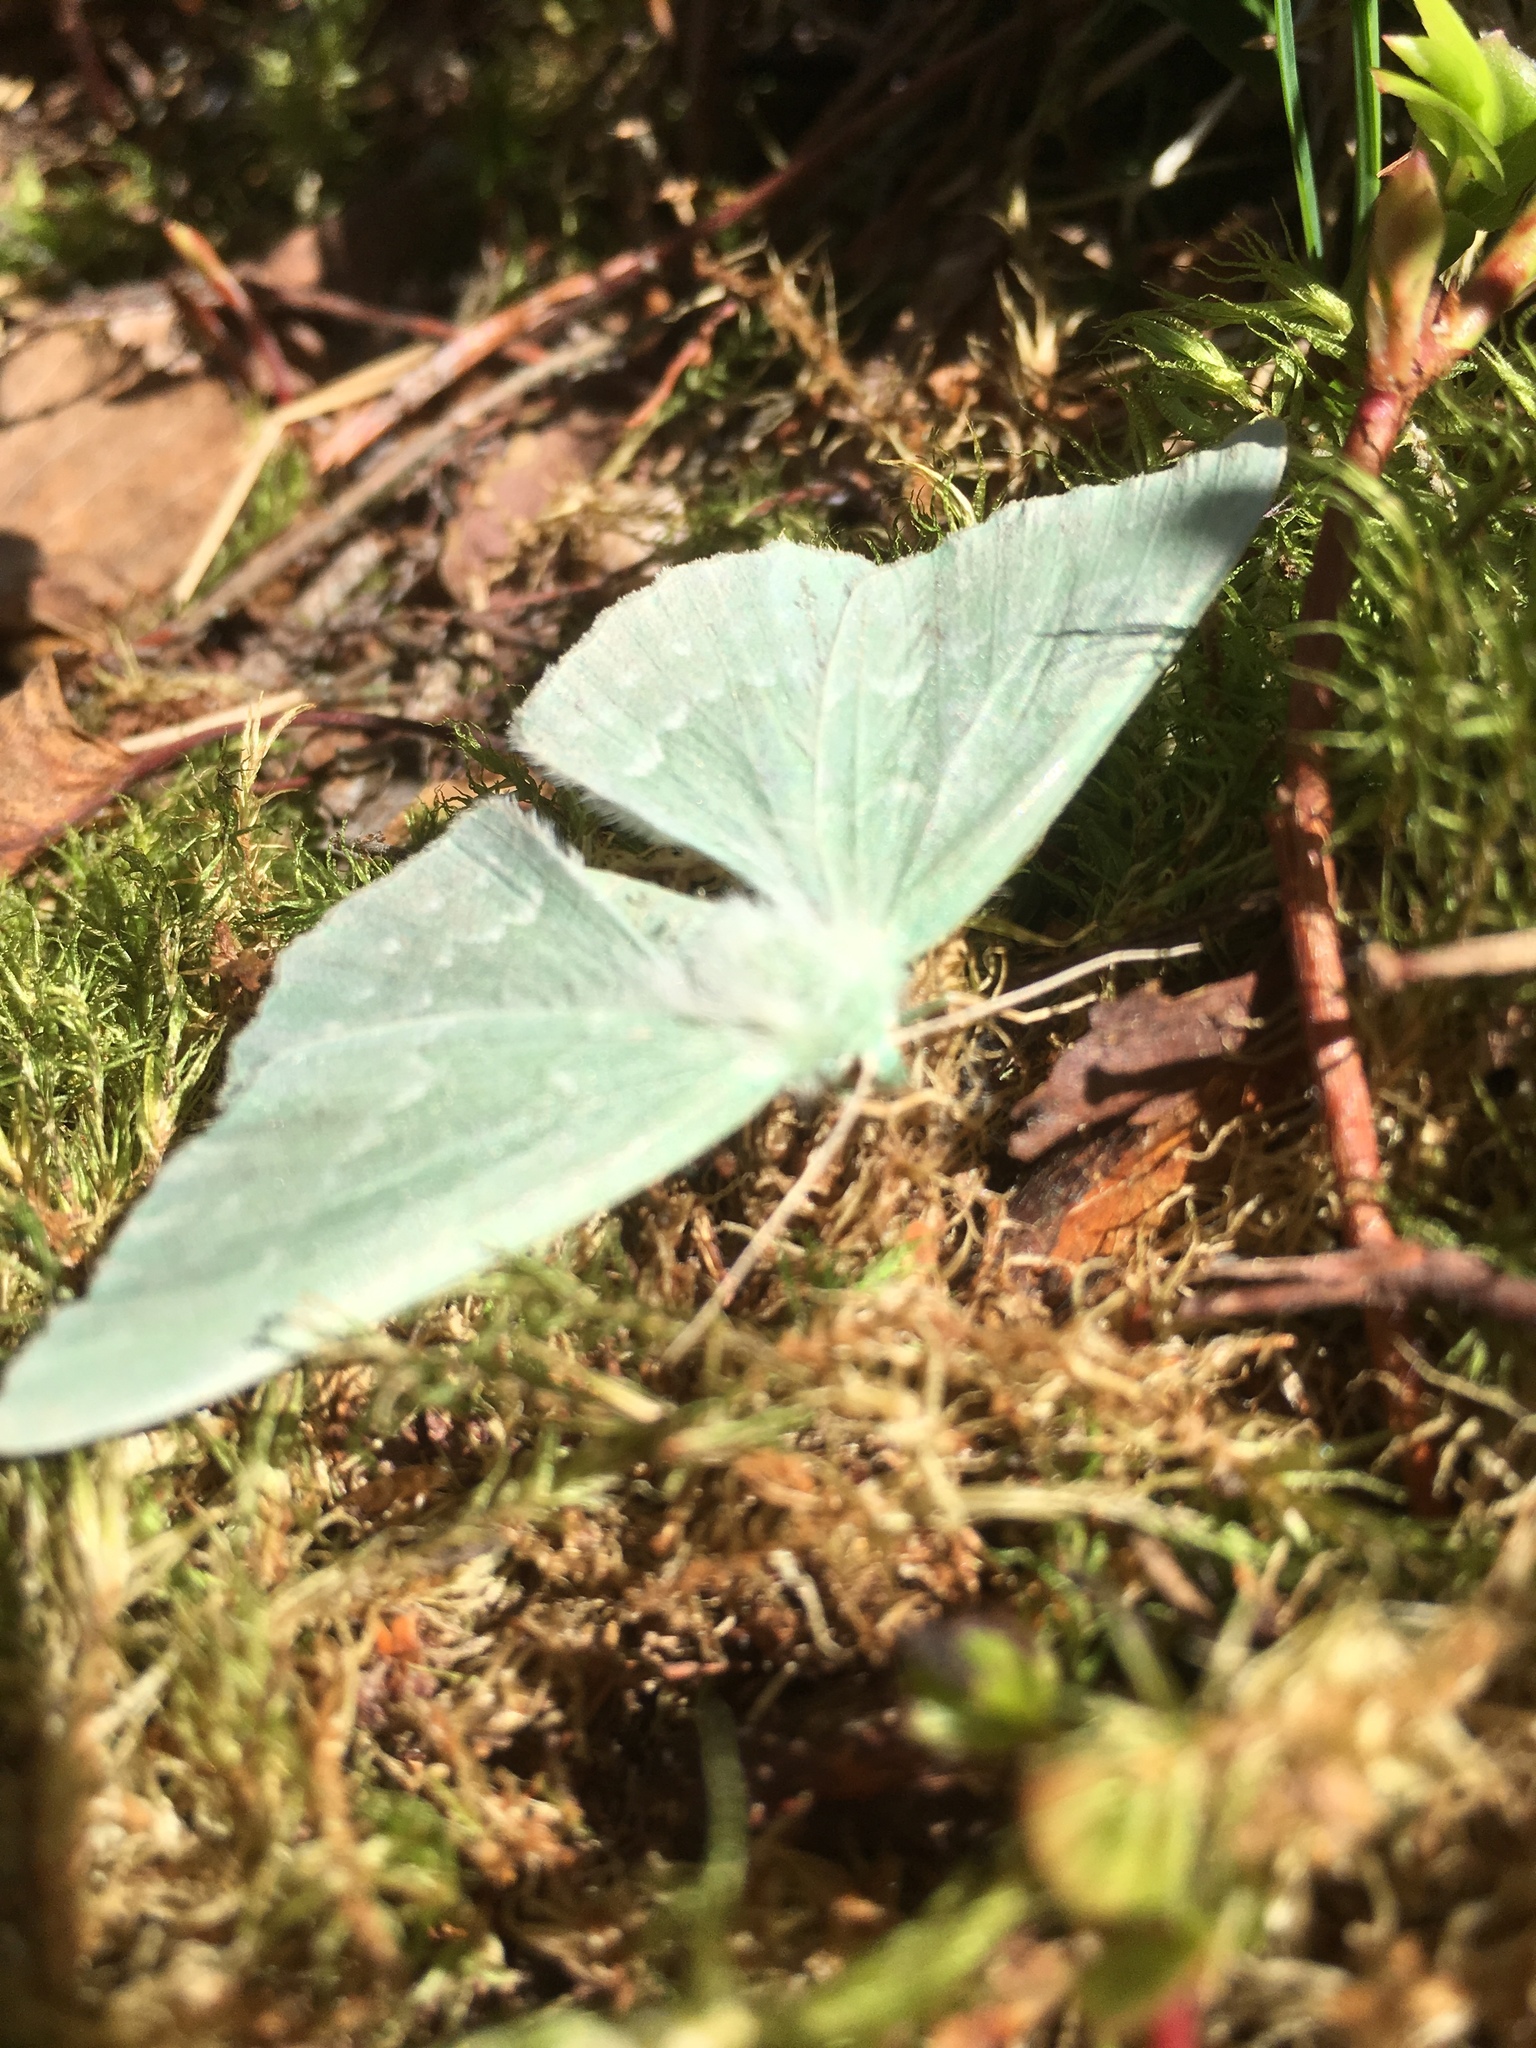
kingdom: Animalia
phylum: Arthropoda
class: Insecta
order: Lepidoptera
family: Geometridae
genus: Geometra
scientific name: Geometra papilionaria
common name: Large emerald
